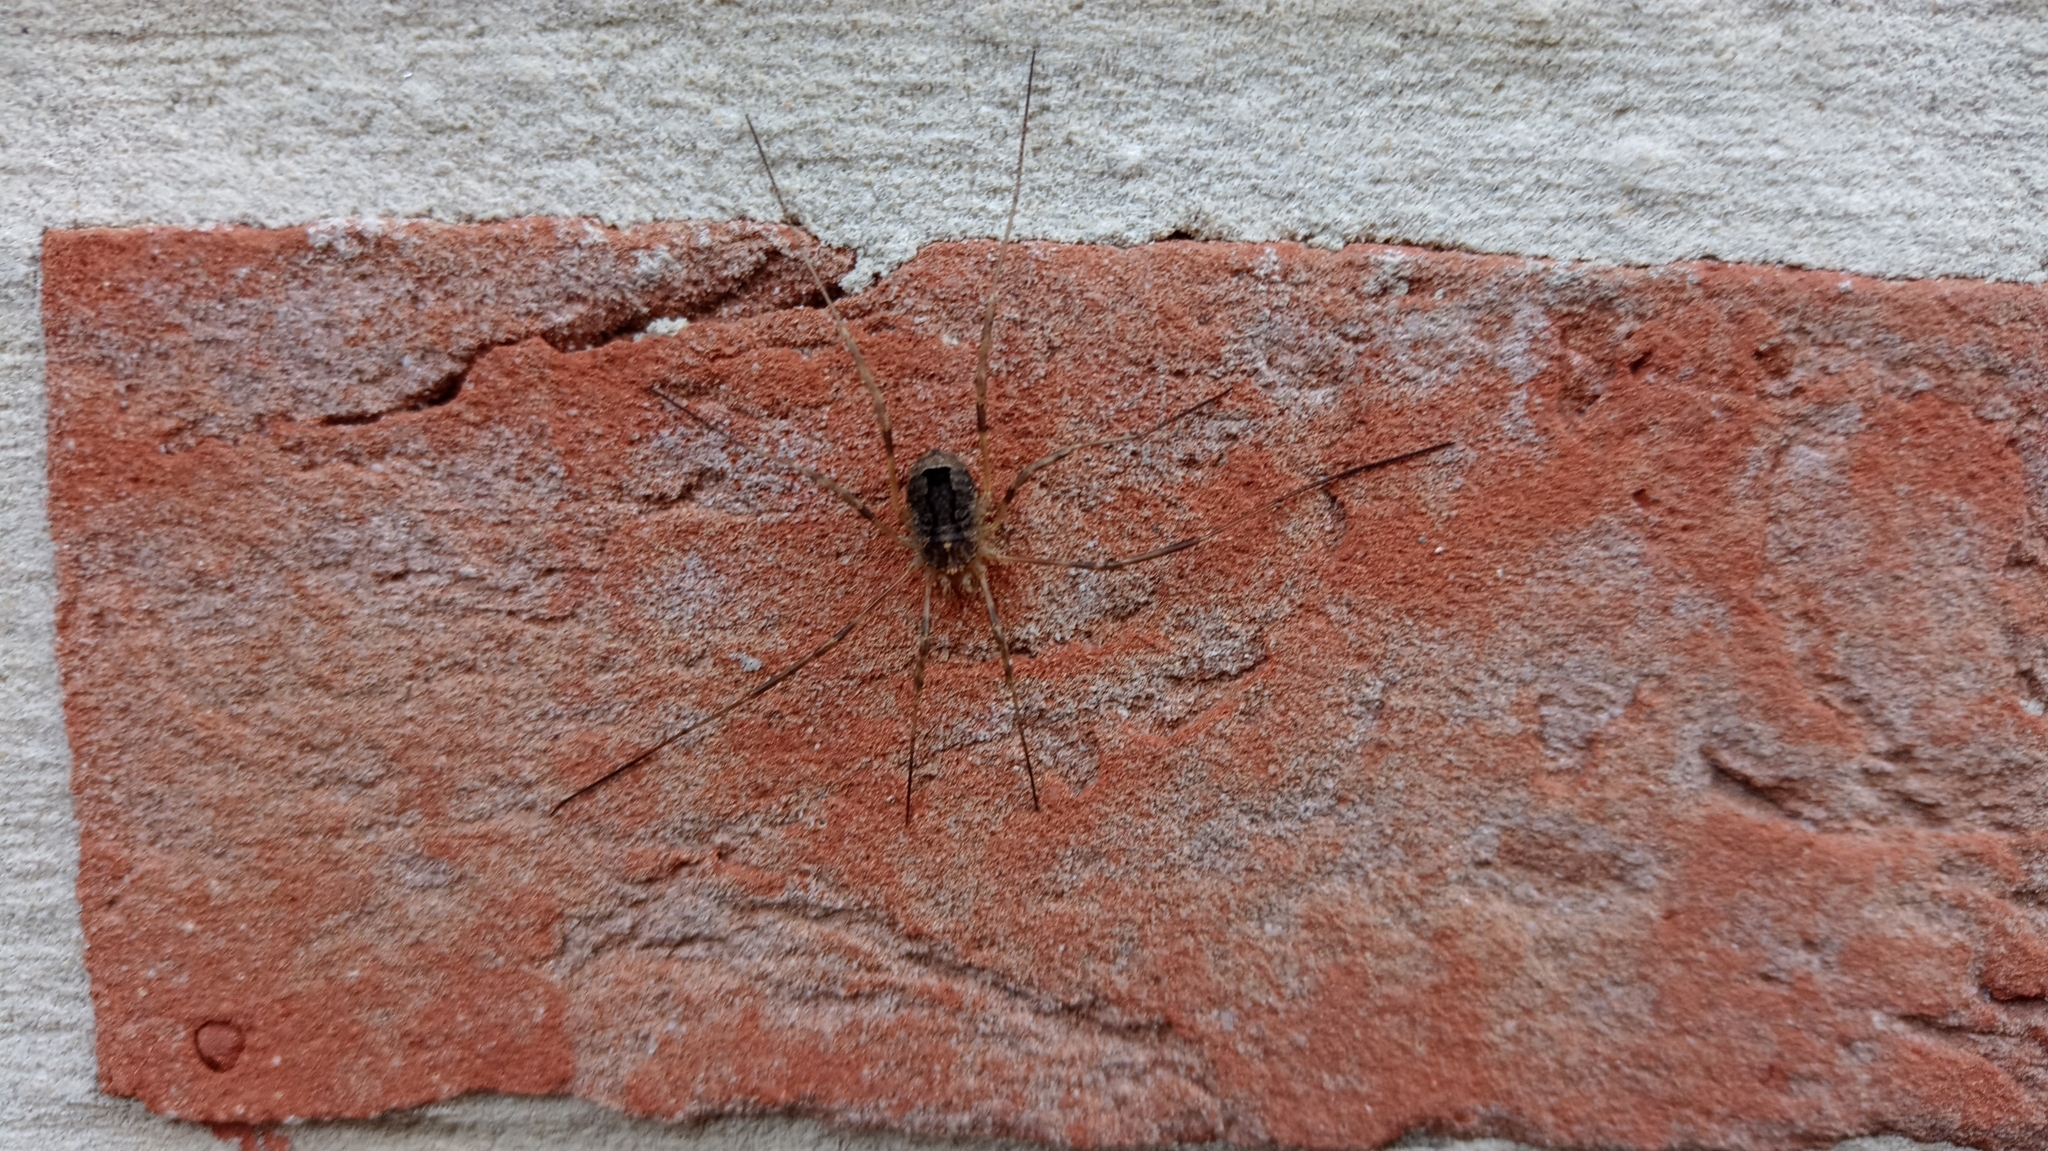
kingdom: Animalia
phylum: Arthropoda
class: Arachnida
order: Opiliones
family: Phalangiidae
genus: Odiellus
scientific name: Odiellus spinosus
